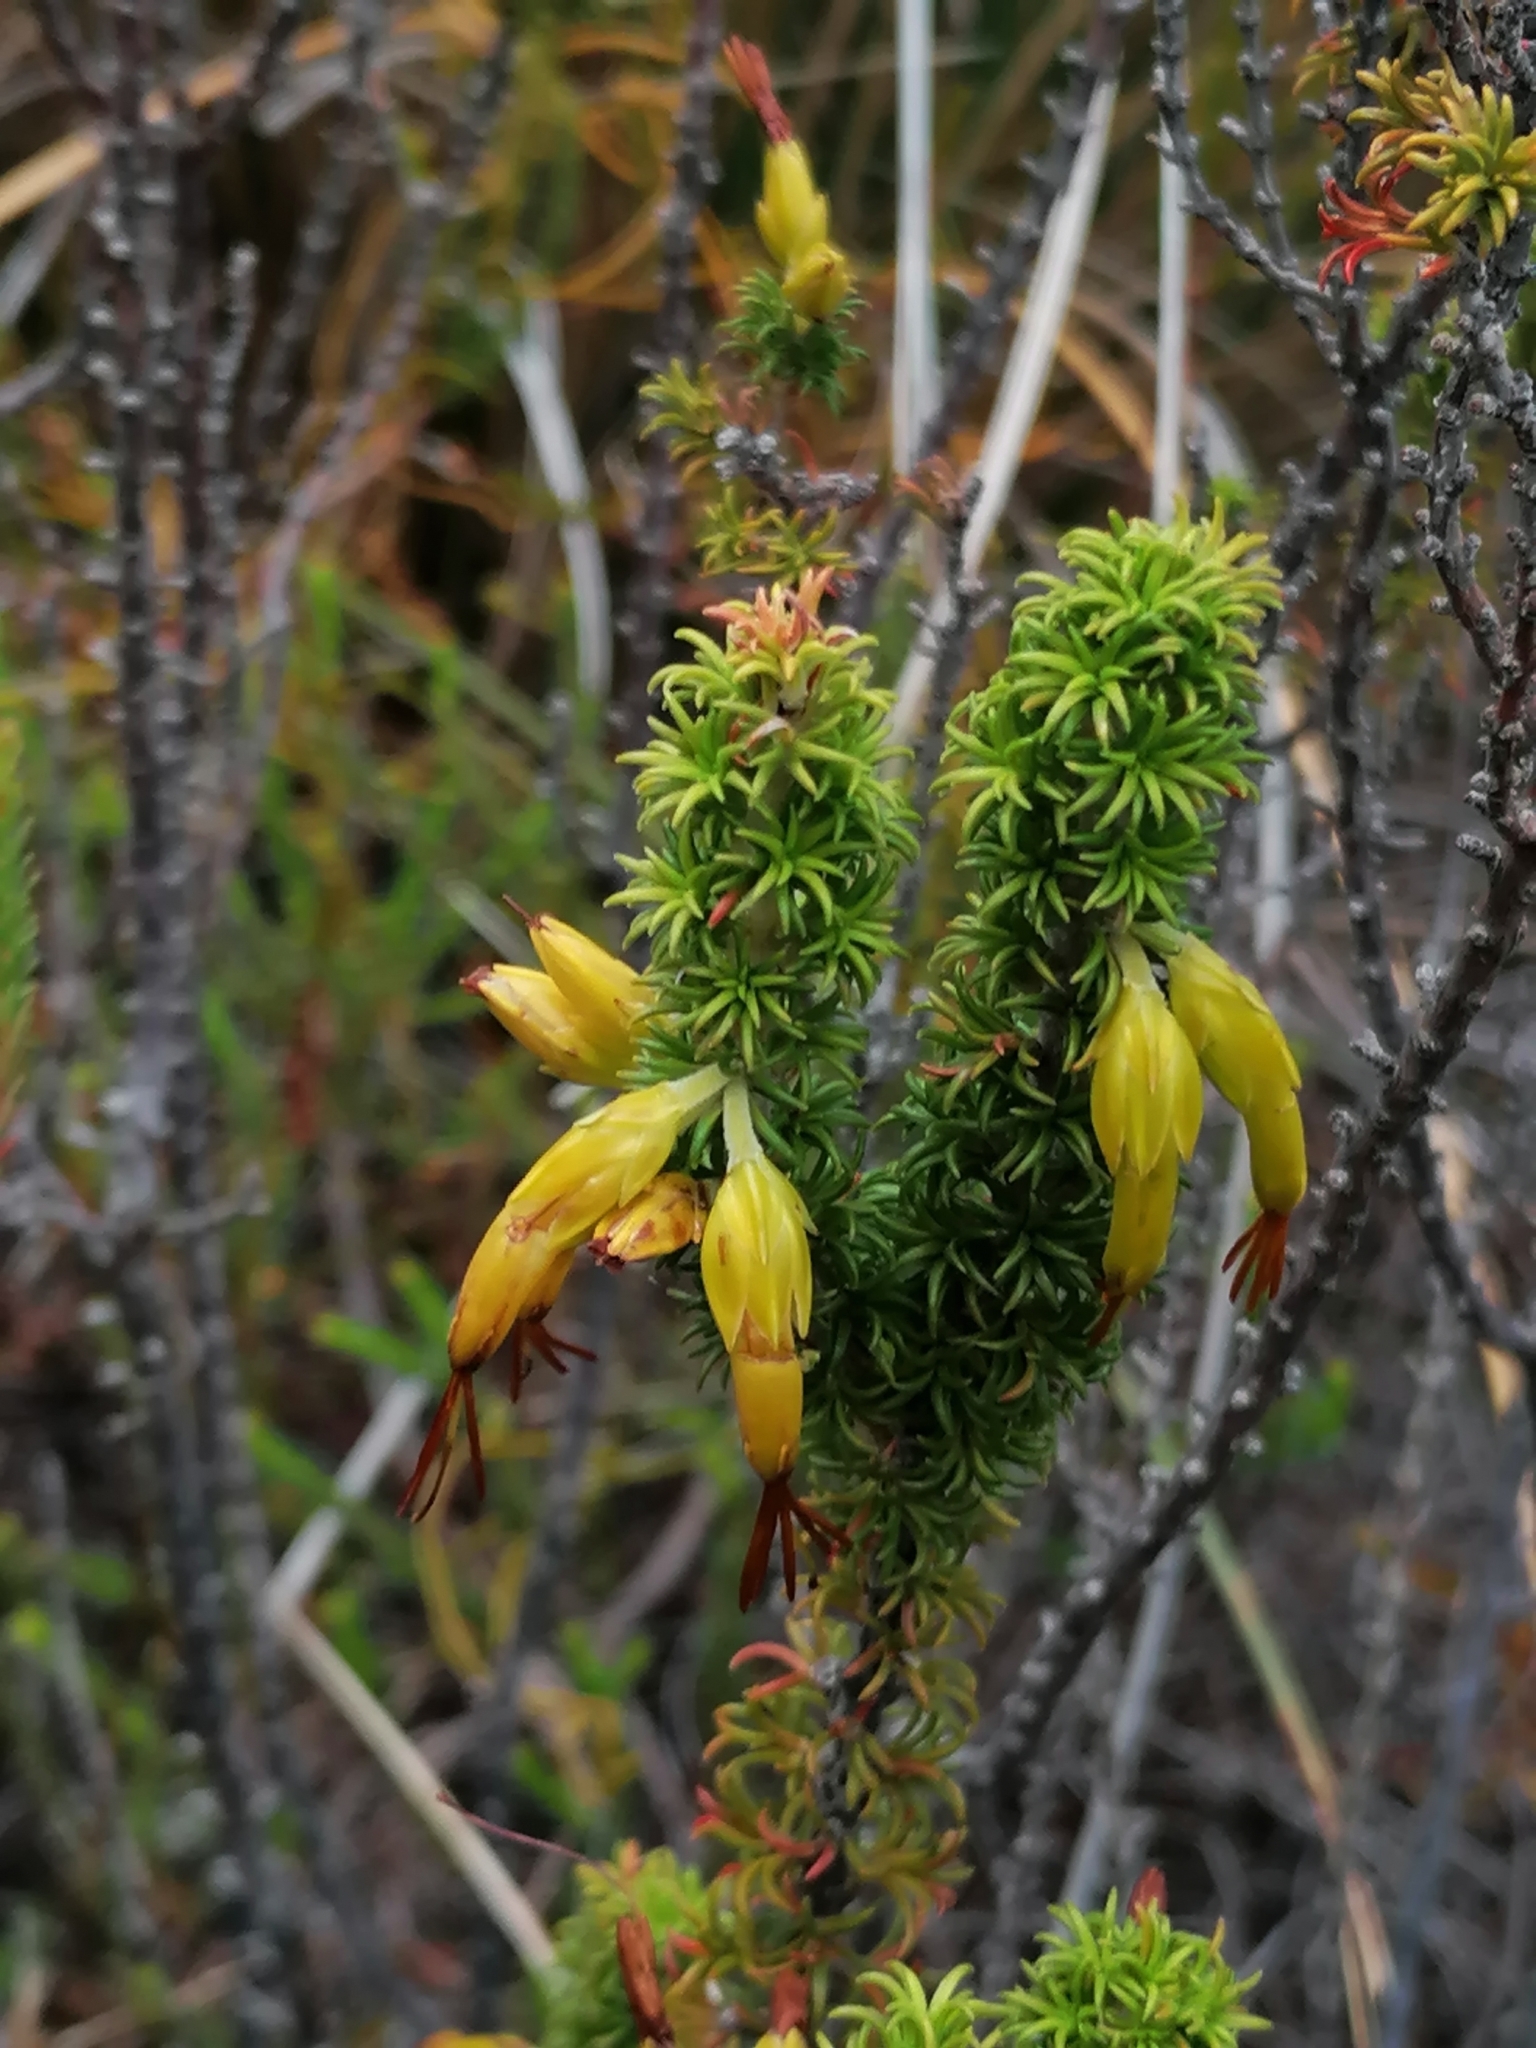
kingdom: Plantae
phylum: Tracheophyta
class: Magnoliopsida
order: Ericales
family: Ericaceae
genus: Erica
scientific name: Erica coccinea
